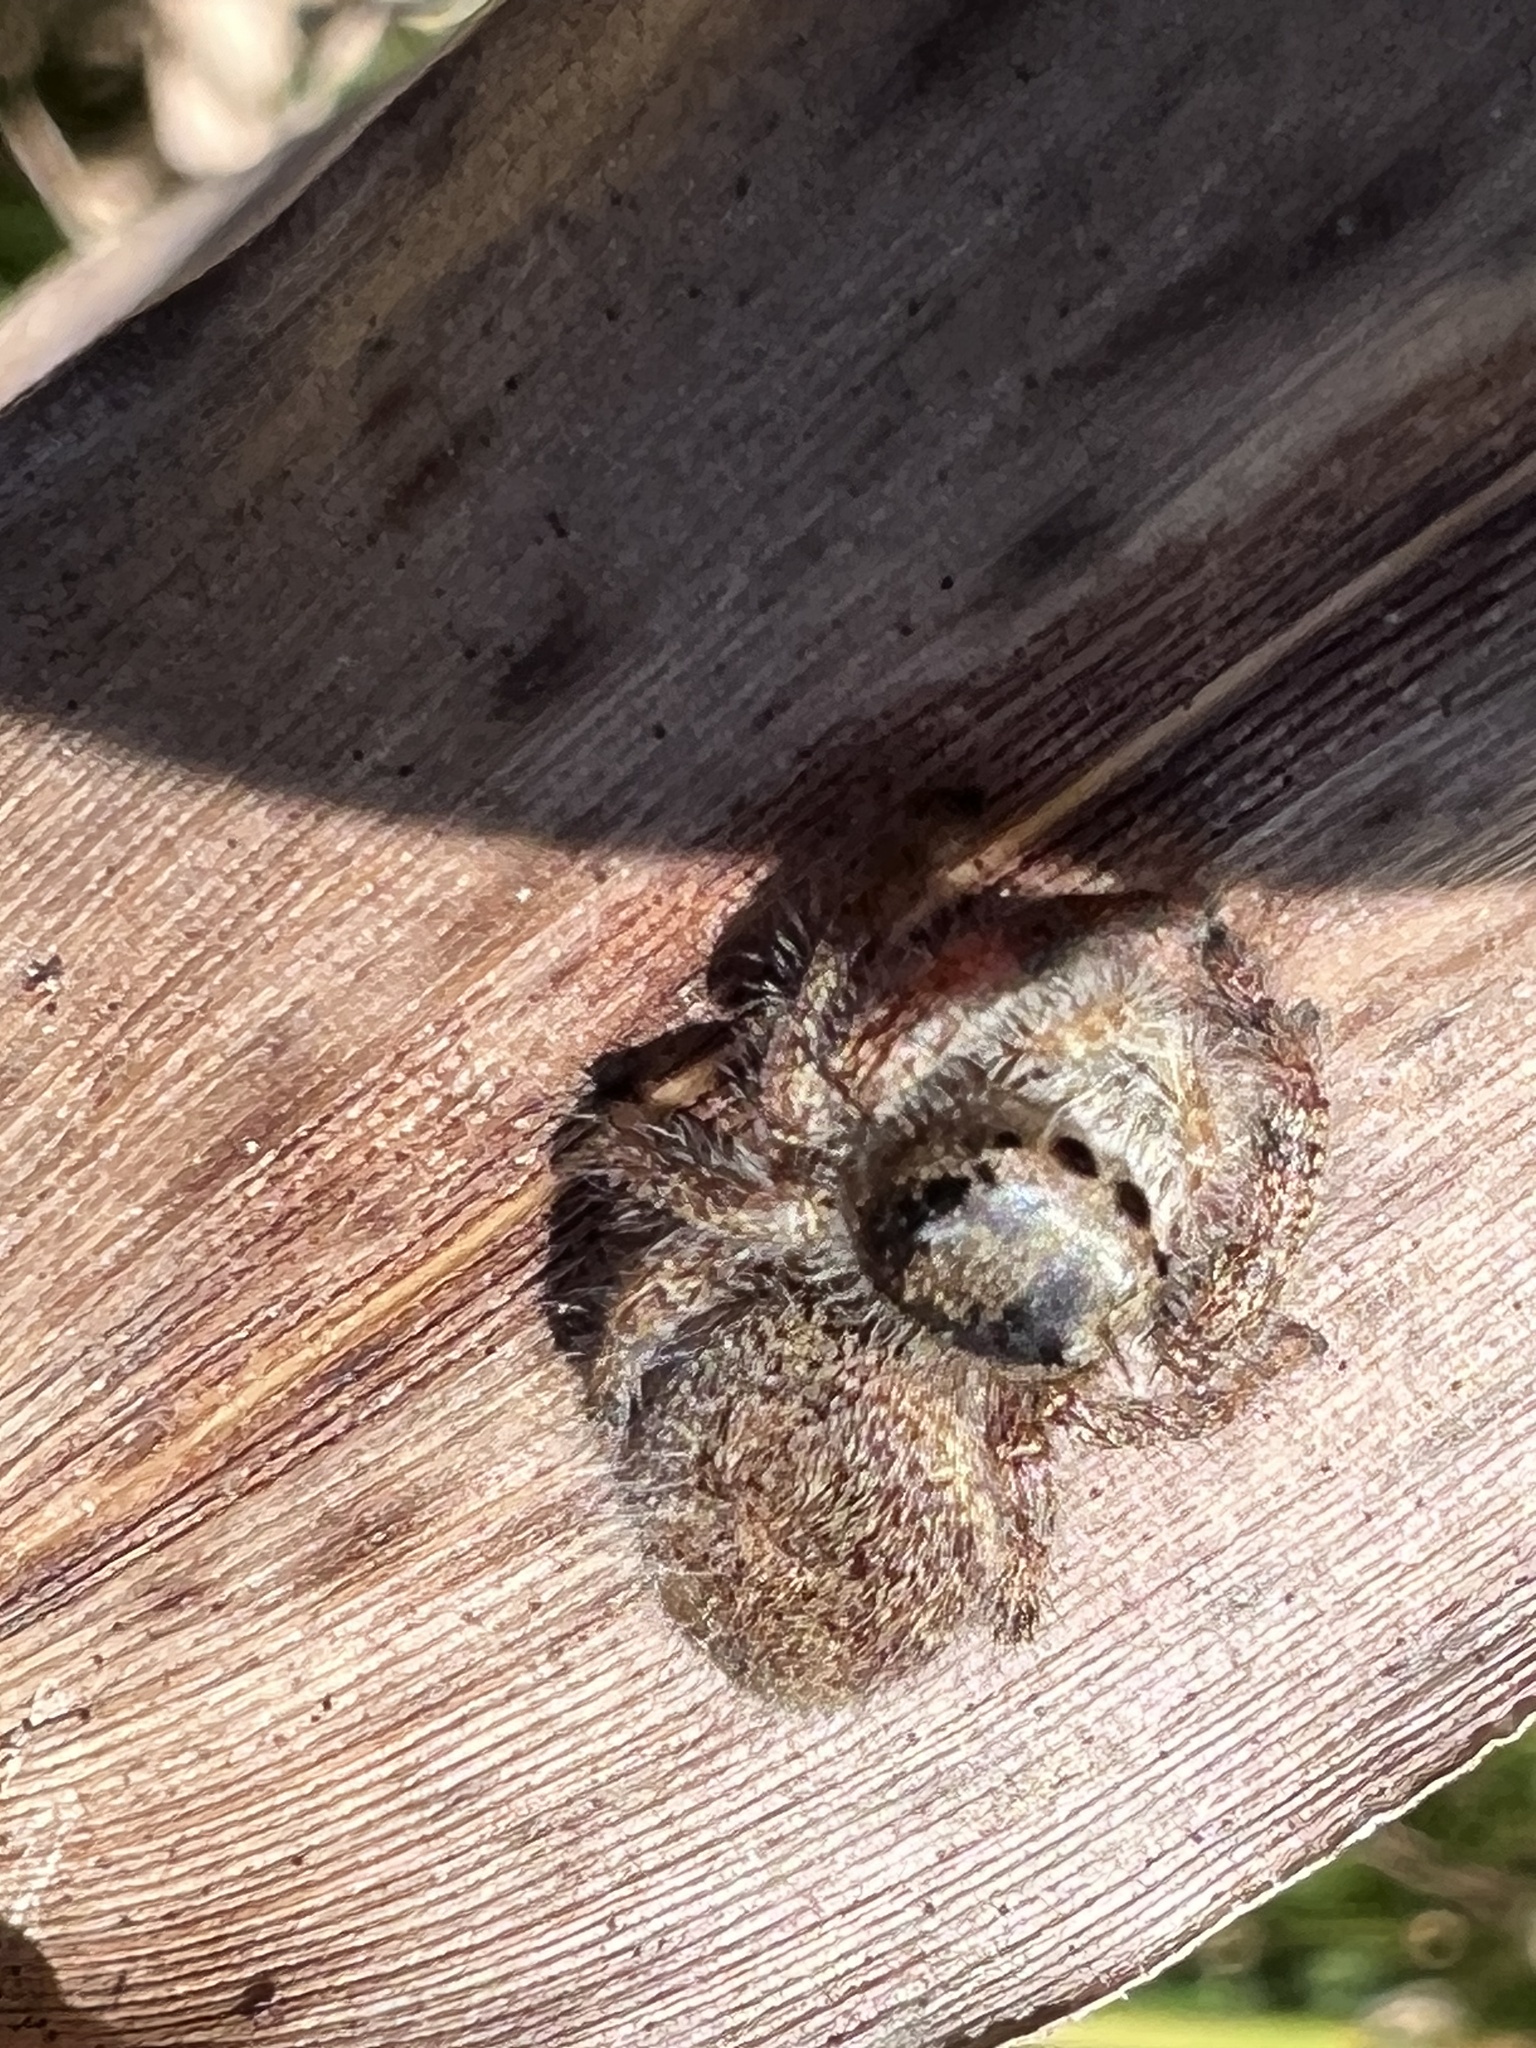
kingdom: Animalia
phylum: Arthropoda
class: Arachnida
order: Araneae
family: Salticidae
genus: Phidippus
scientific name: Phidippus princeps
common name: Grayish jumping spider
